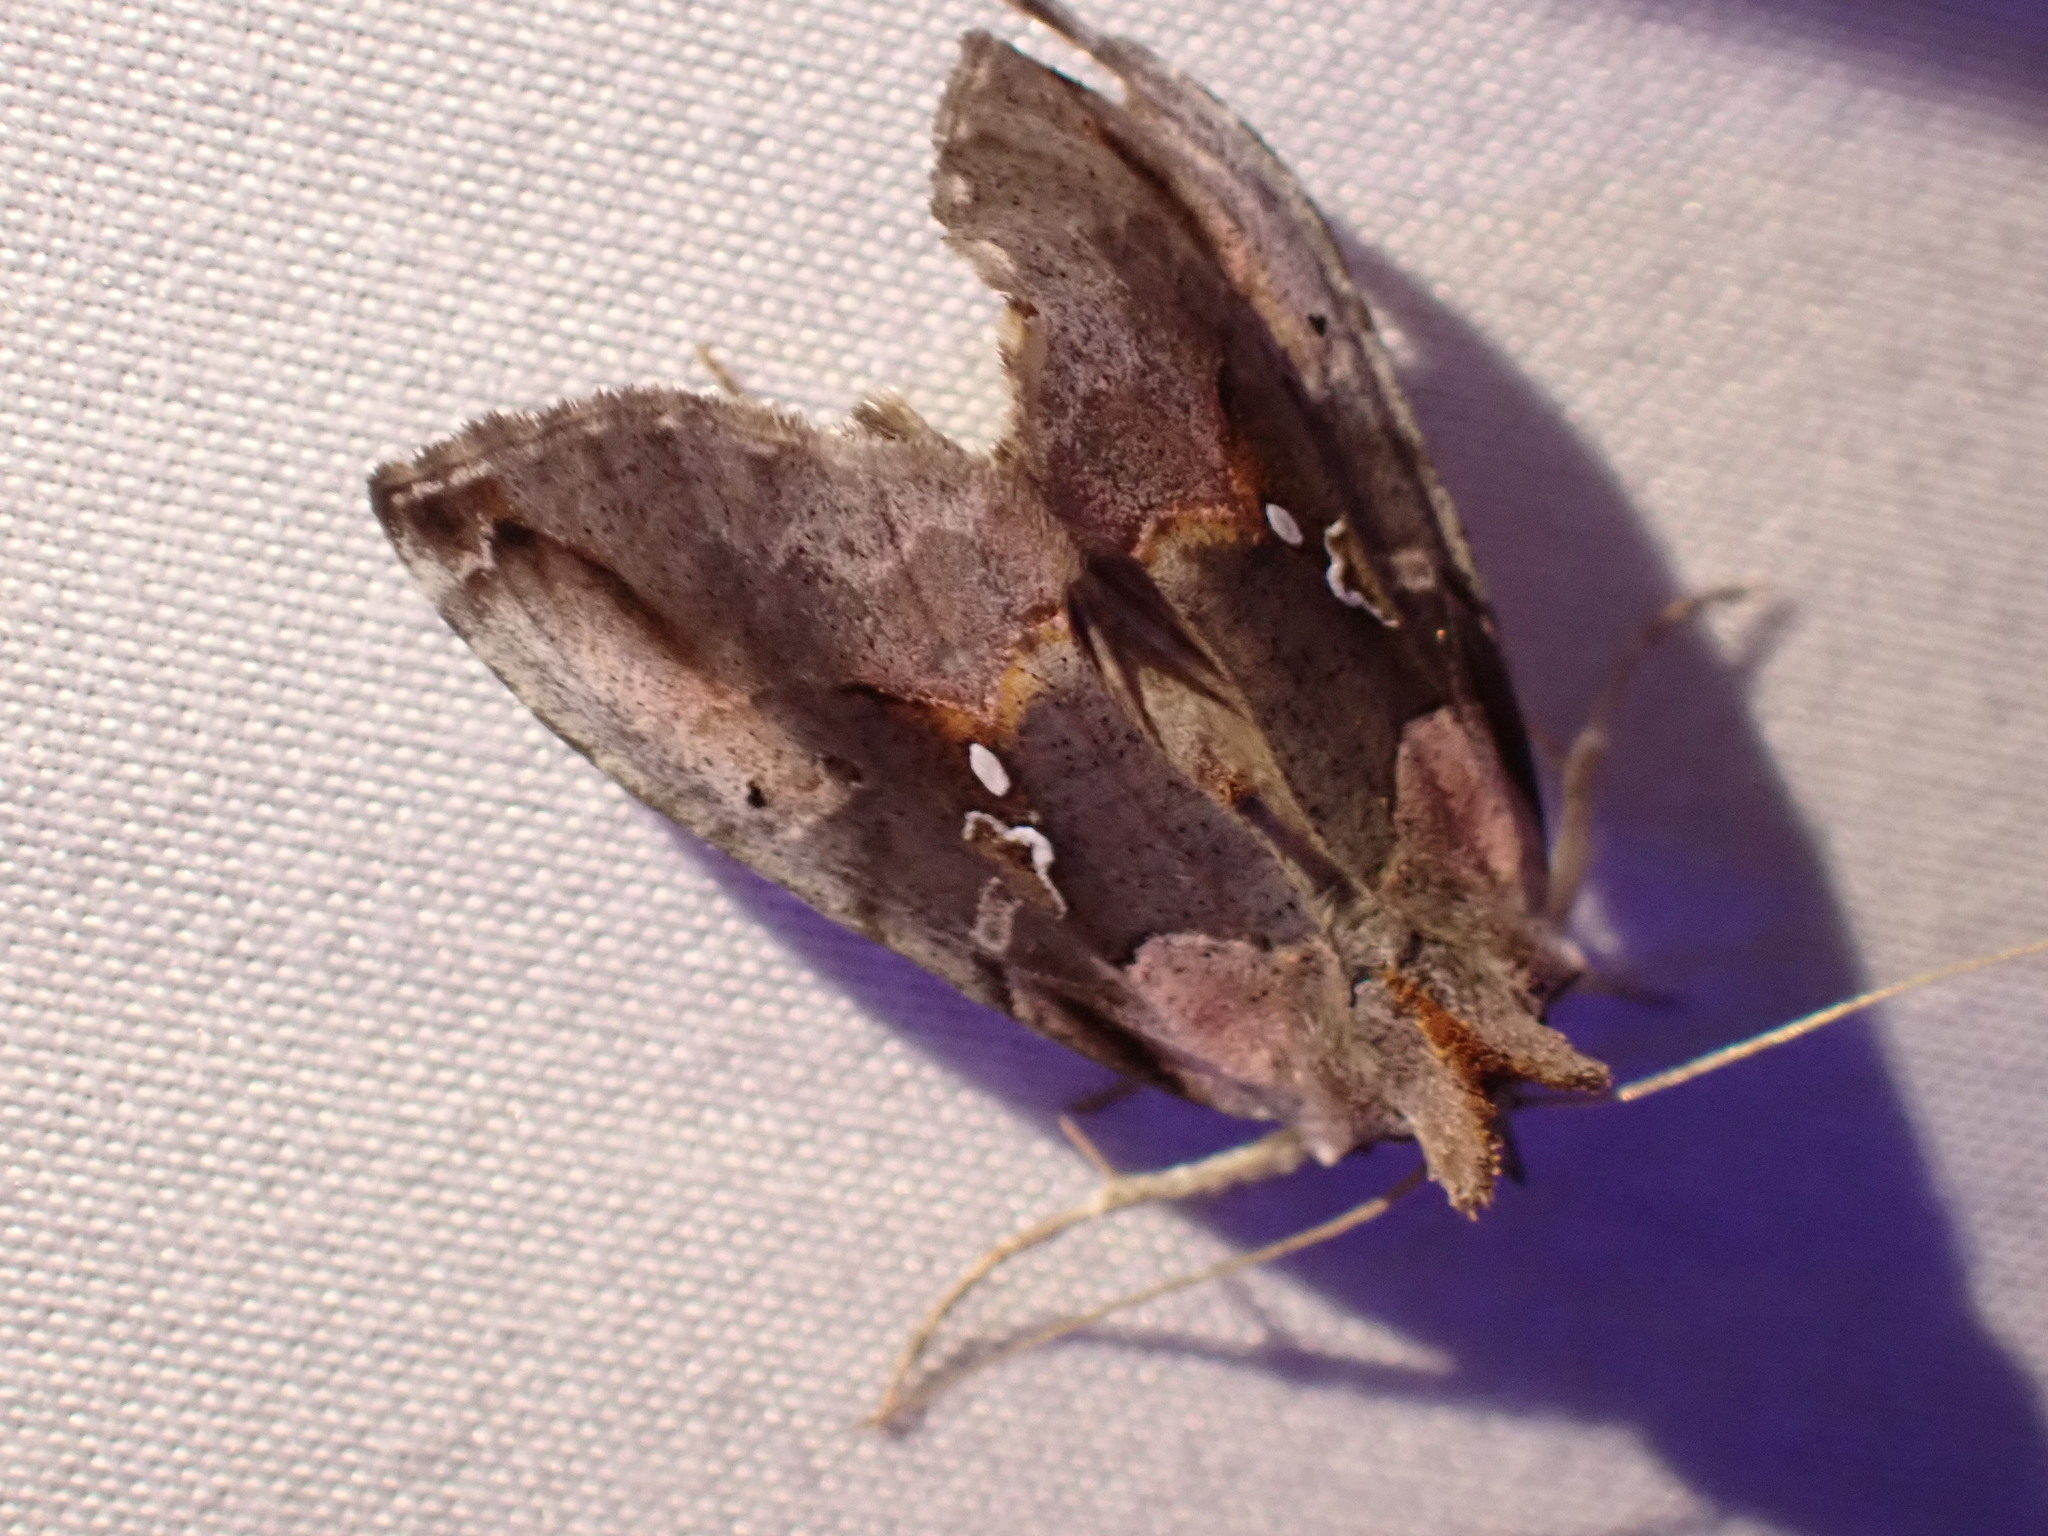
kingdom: Animalia
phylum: Arthropoda
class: Insecta
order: Lepidoptera
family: Noctuidae
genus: Eosphoropteryx
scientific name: Eosphoropteryx thyatyroides
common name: Pinkpatched looper moth
